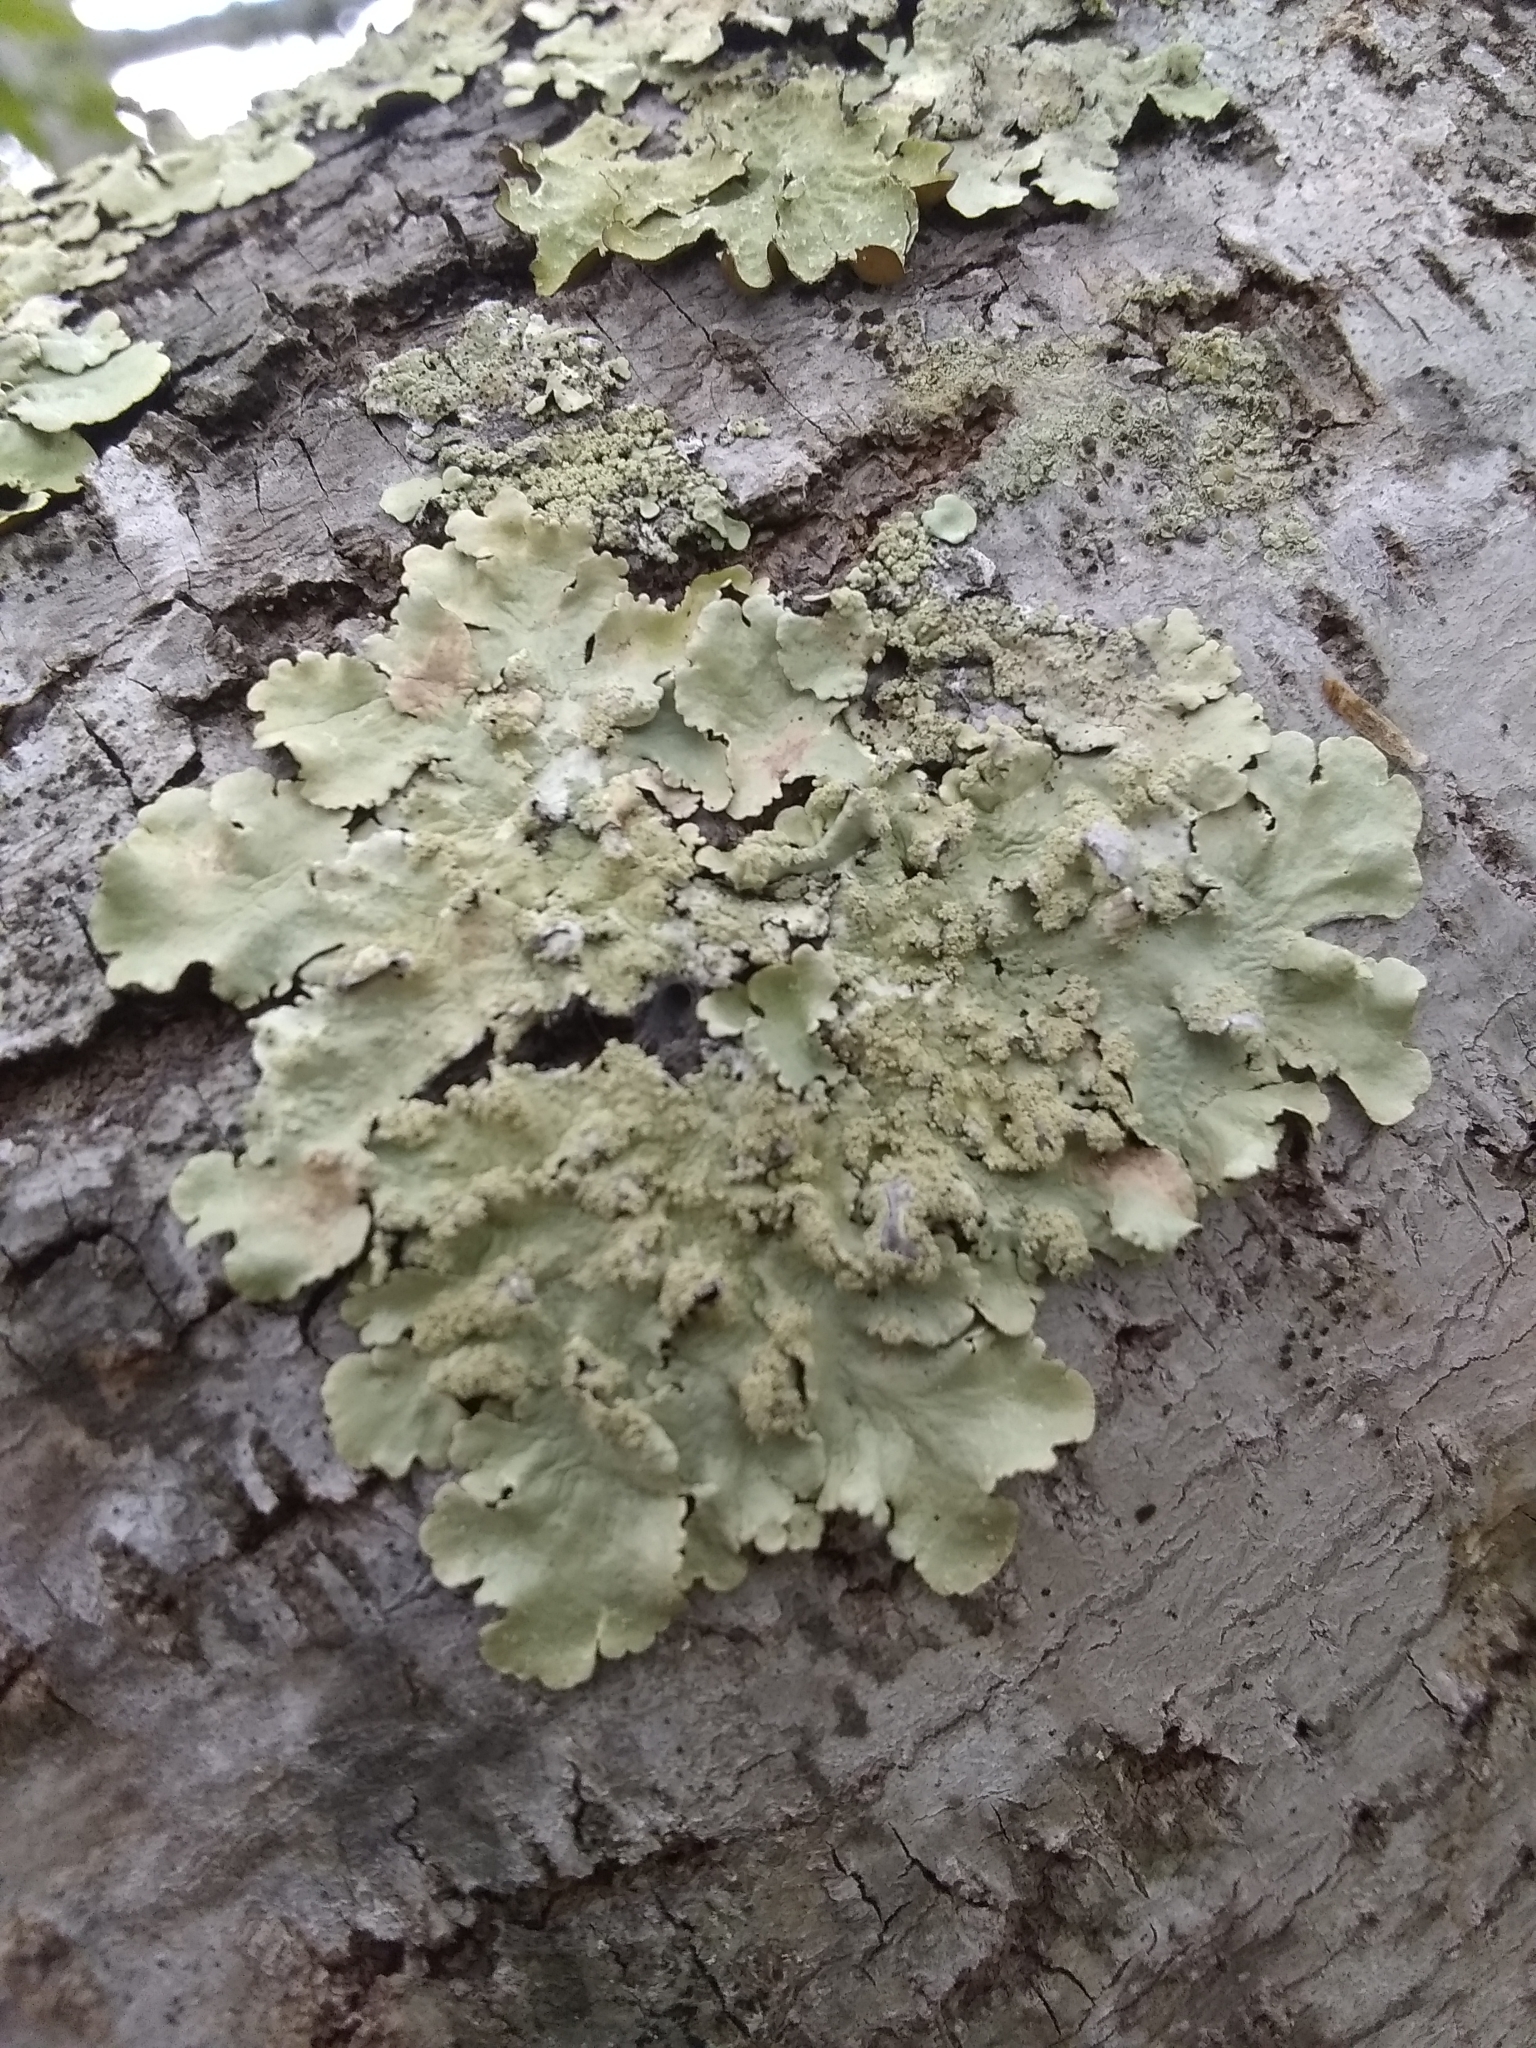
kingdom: Fungi
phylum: Ascomycota
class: Lecanoromycetes
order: Lecanorales
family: Parmeliaceae
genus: Flavoparmelia
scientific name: Flavoparmelia caperata
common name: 40-mile per hour lichen
